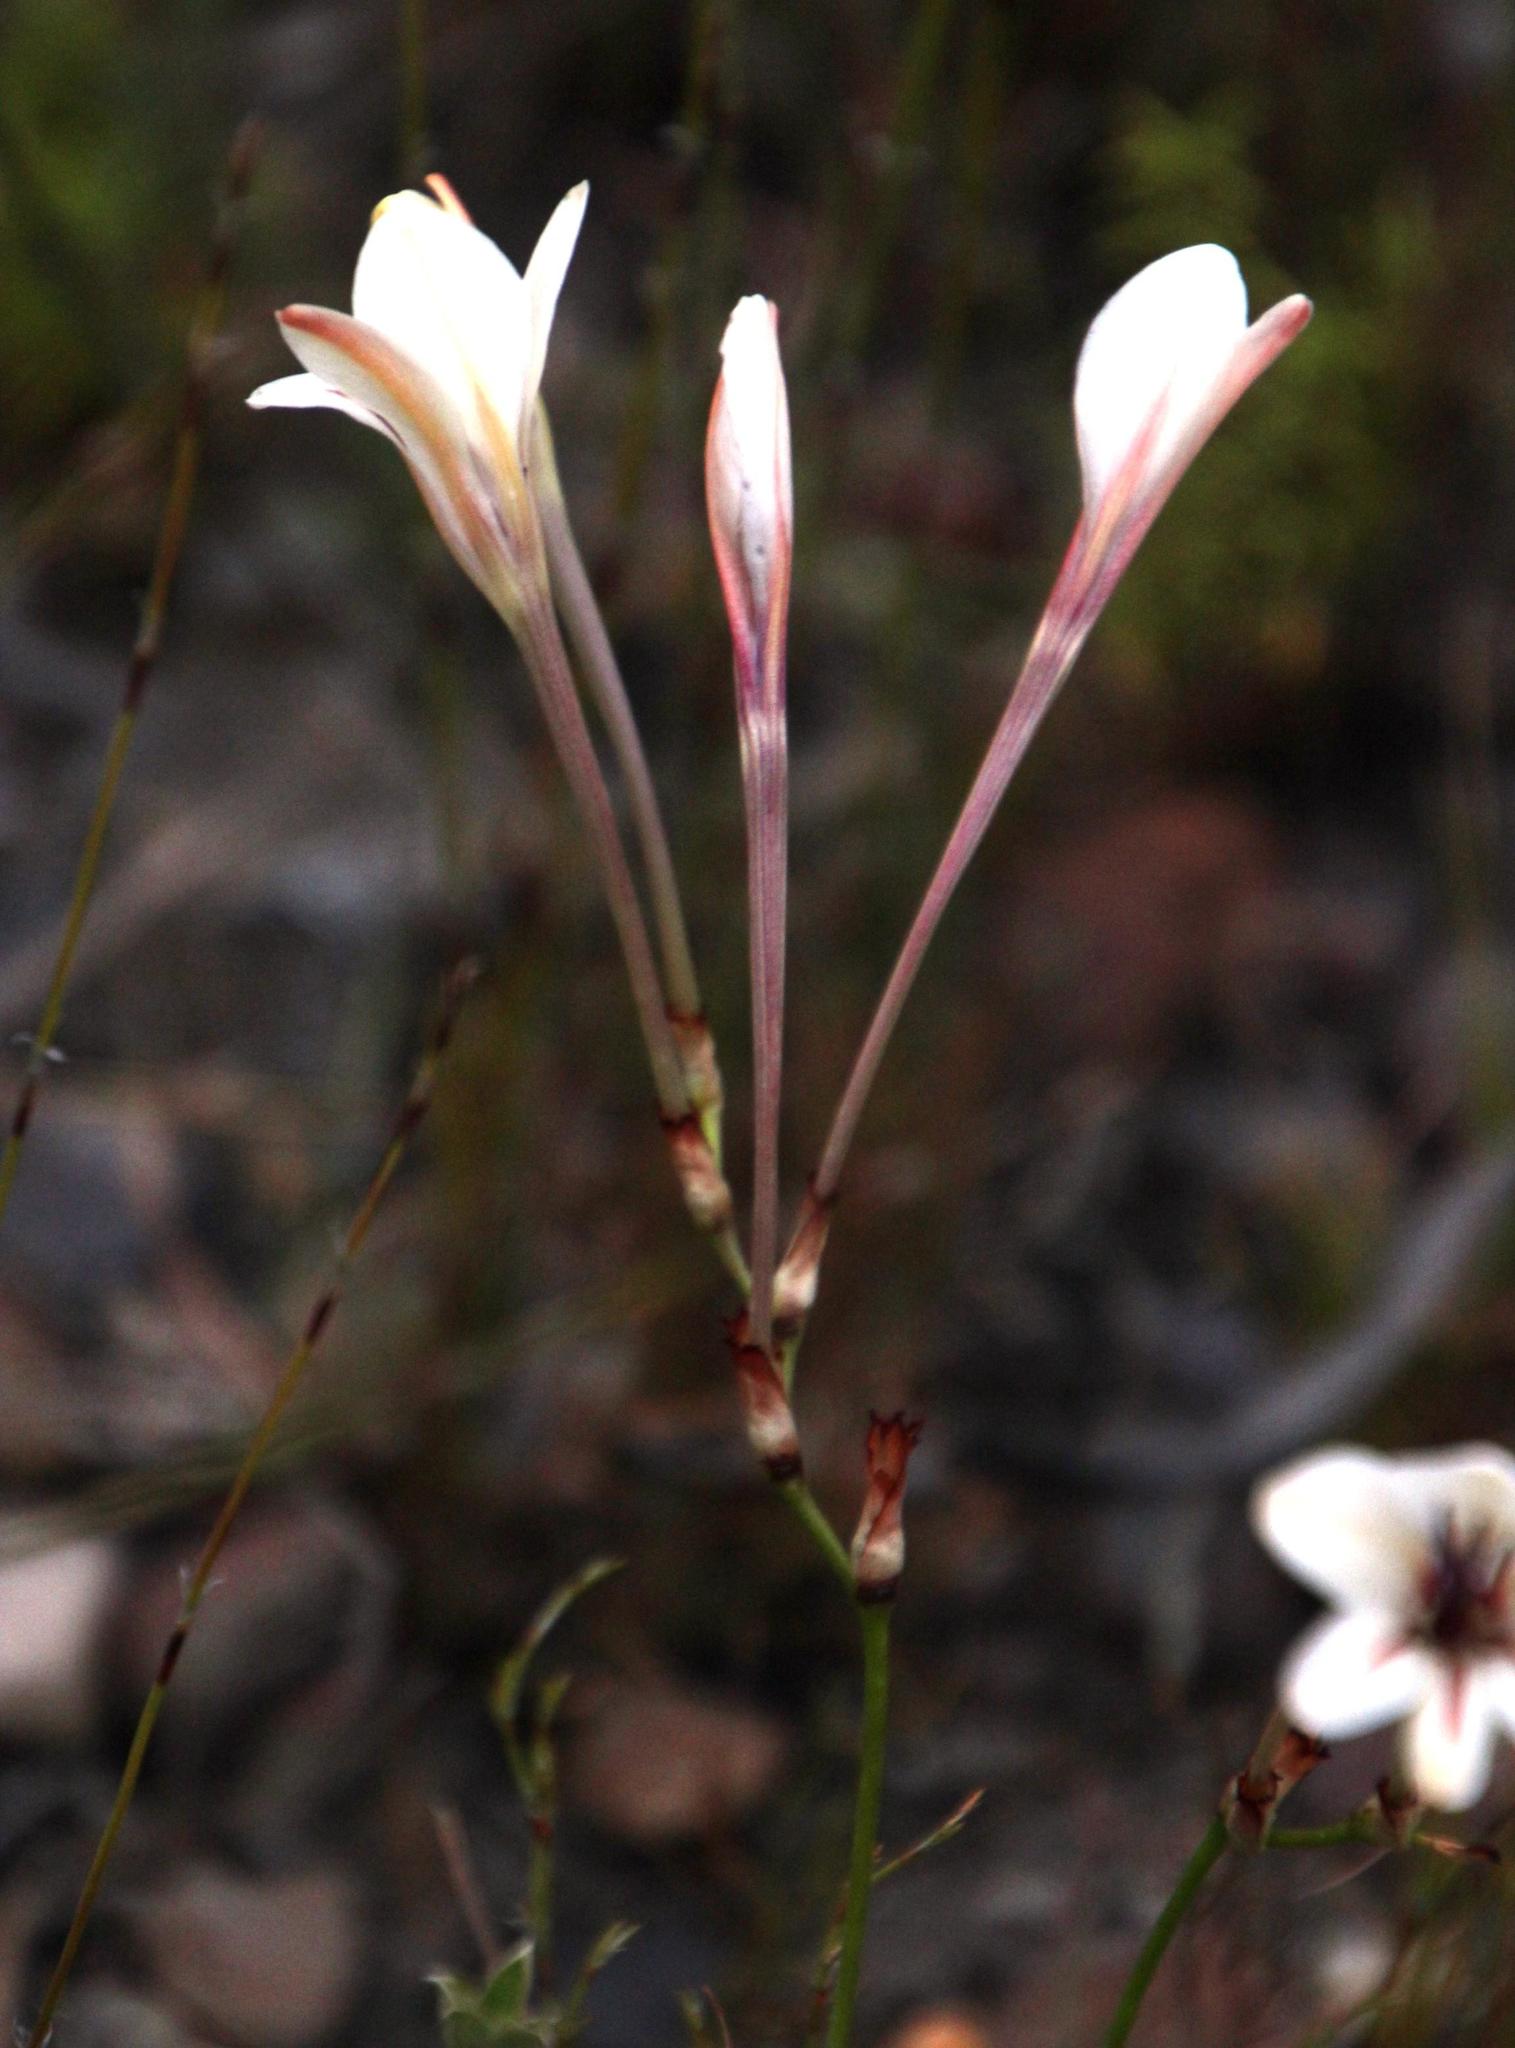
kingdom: Plantae
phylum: Tracheophyta
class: Liliopsida
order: Asparagales
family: Iridaceae
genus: Tritonia
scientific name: Tritonia cooperi
